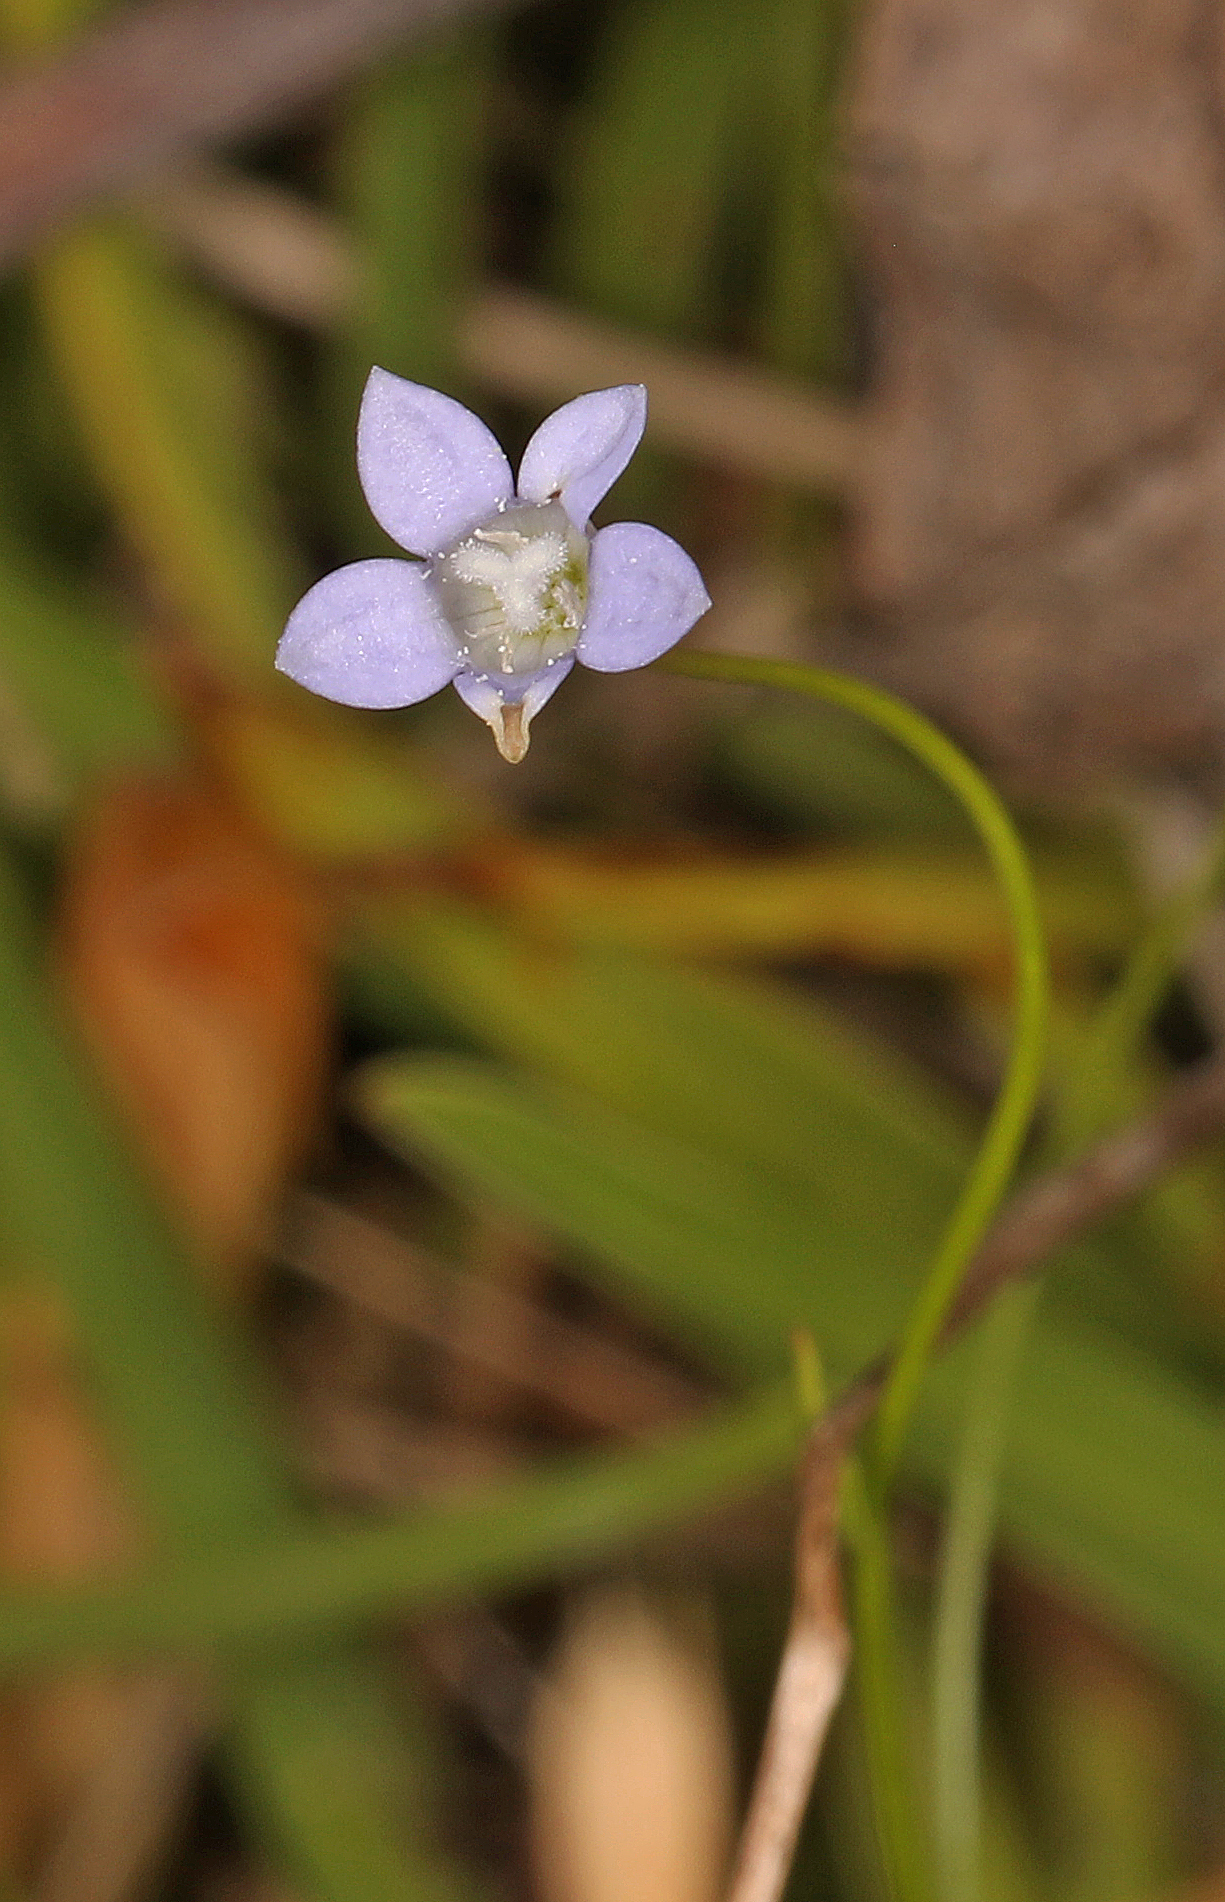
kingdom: Plantae
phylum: Tracheophyta
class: Magnoliopsida
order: Asterales
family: Campanulaceae
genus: Wahlenbergia
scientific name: Wahlenbergia marginata
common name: Southern rockbell
